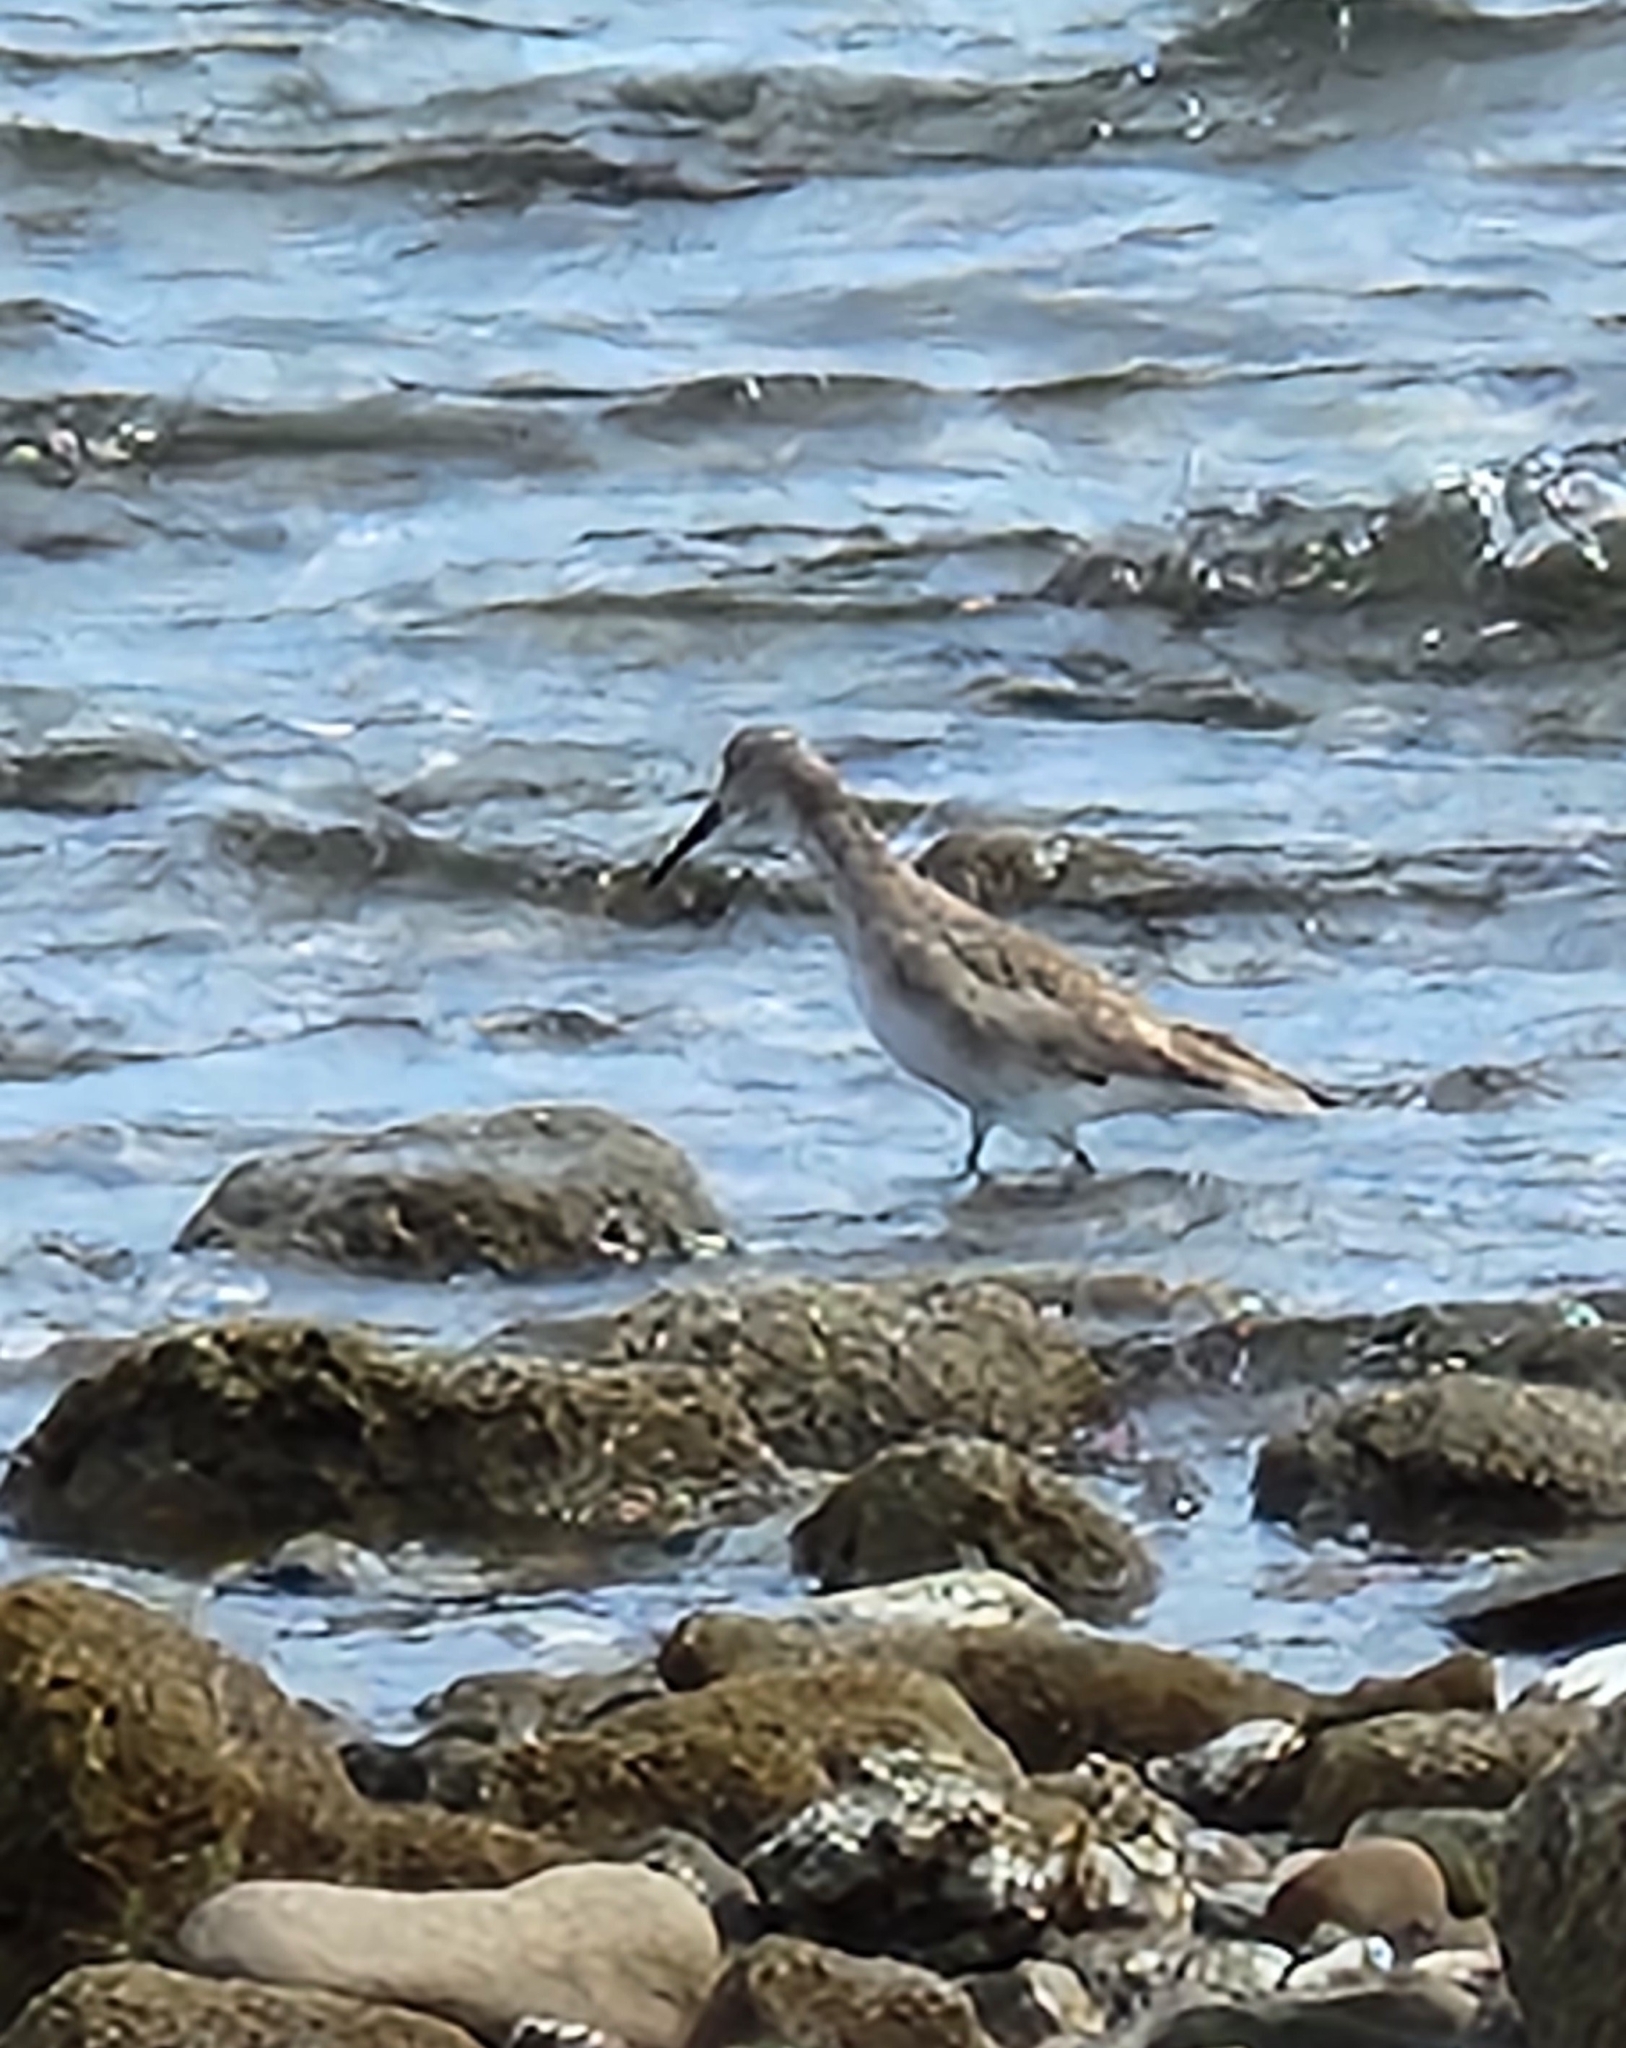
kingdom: Animalia
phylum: Chordata
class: Aves
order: Charadriiformes
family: Scolopacidae
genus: Tringa
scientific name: Tringa semipalmata
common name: Willet
